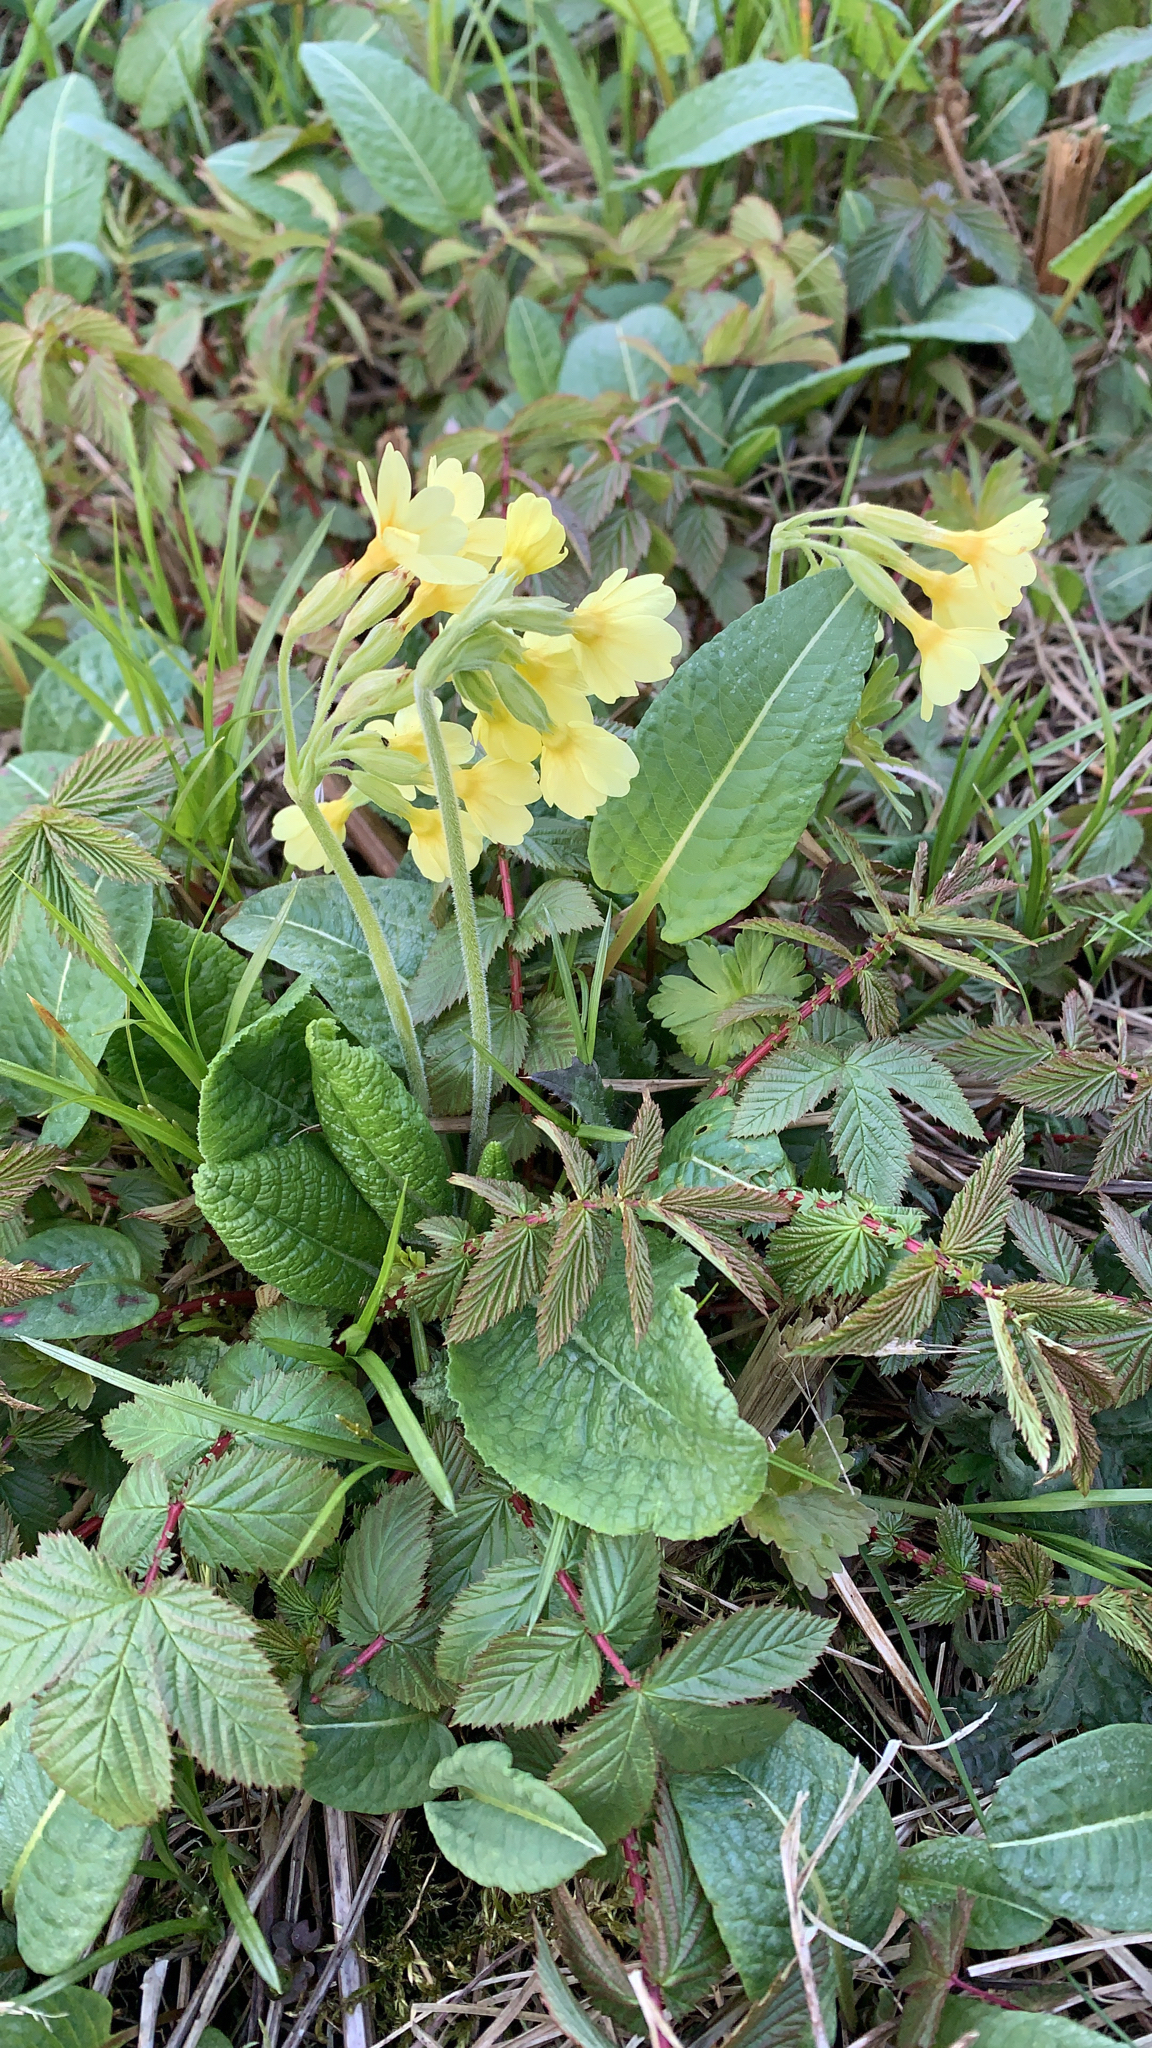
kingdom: Plantae
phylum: Tracheophyta
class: Magnoliopsida
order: Ericales
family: Primulaceae
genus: Primula
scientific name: Primula elatior
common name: Oxlip
